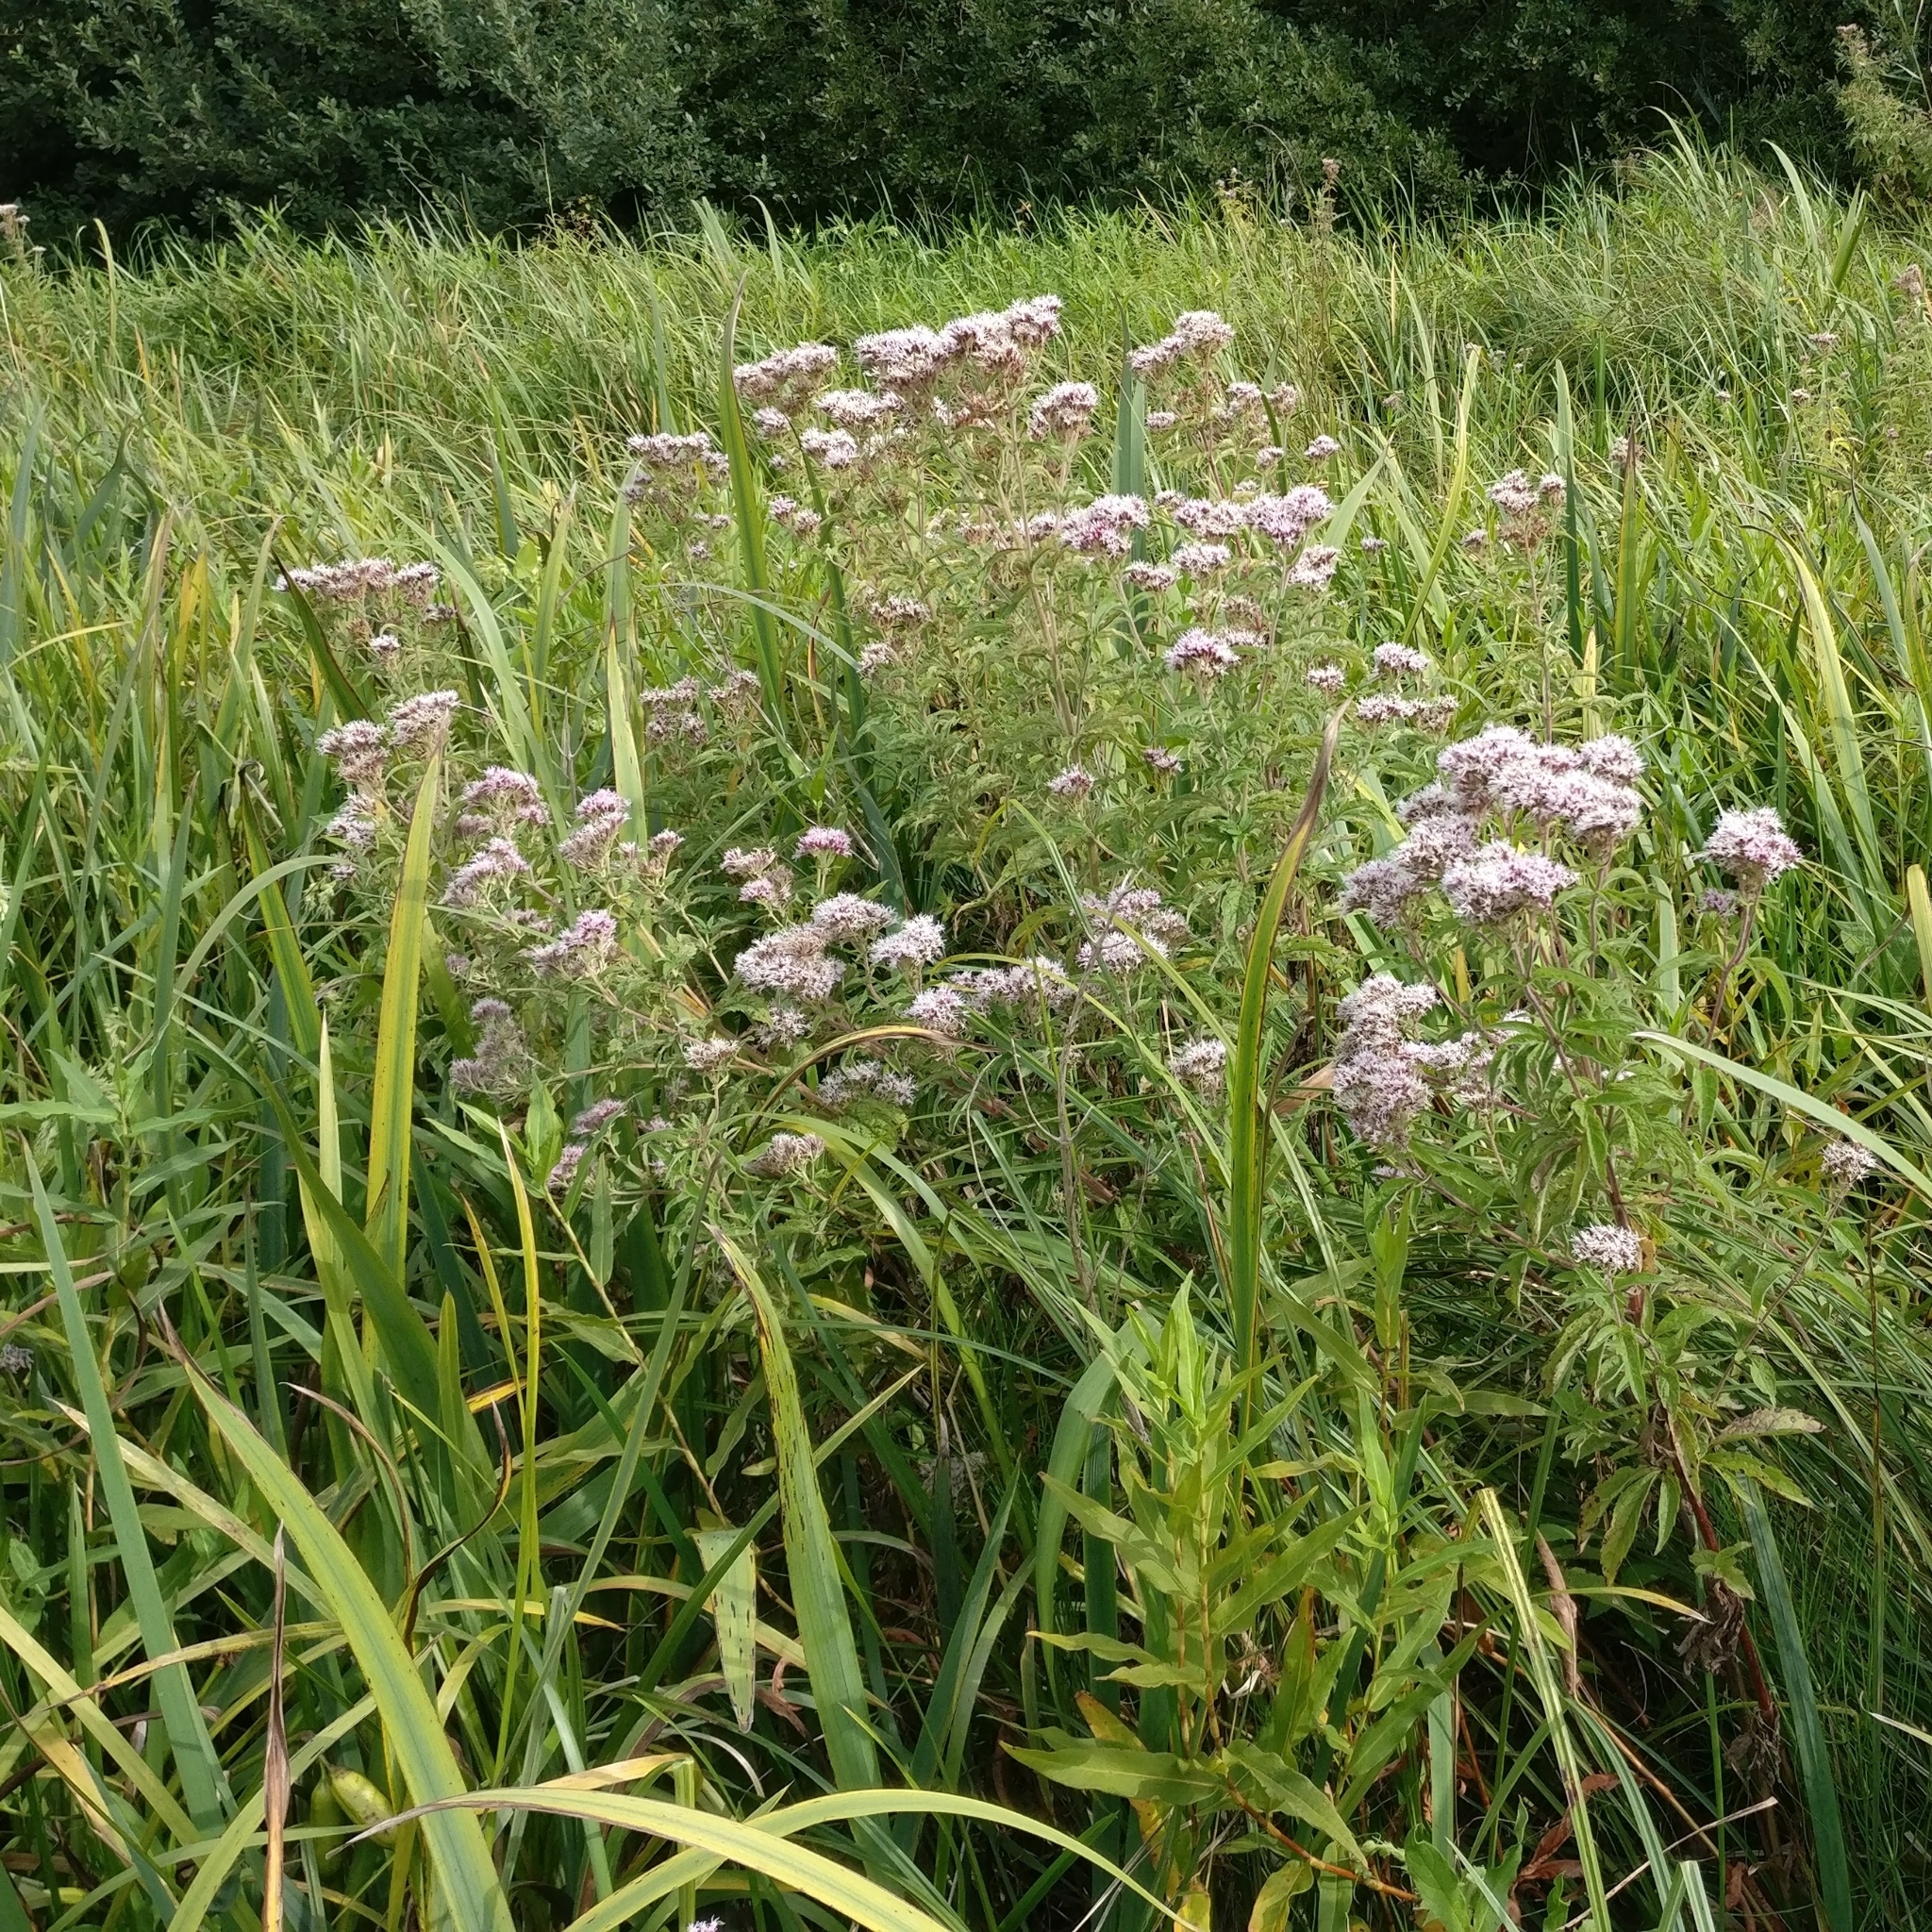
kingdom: Plantae
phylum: Tracheophyta
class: Magnoliopsida
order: Asterales
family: Asteraceae
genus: Eupatorium
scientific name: Eupatorium cannabinum
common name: Hemp-agrimony
